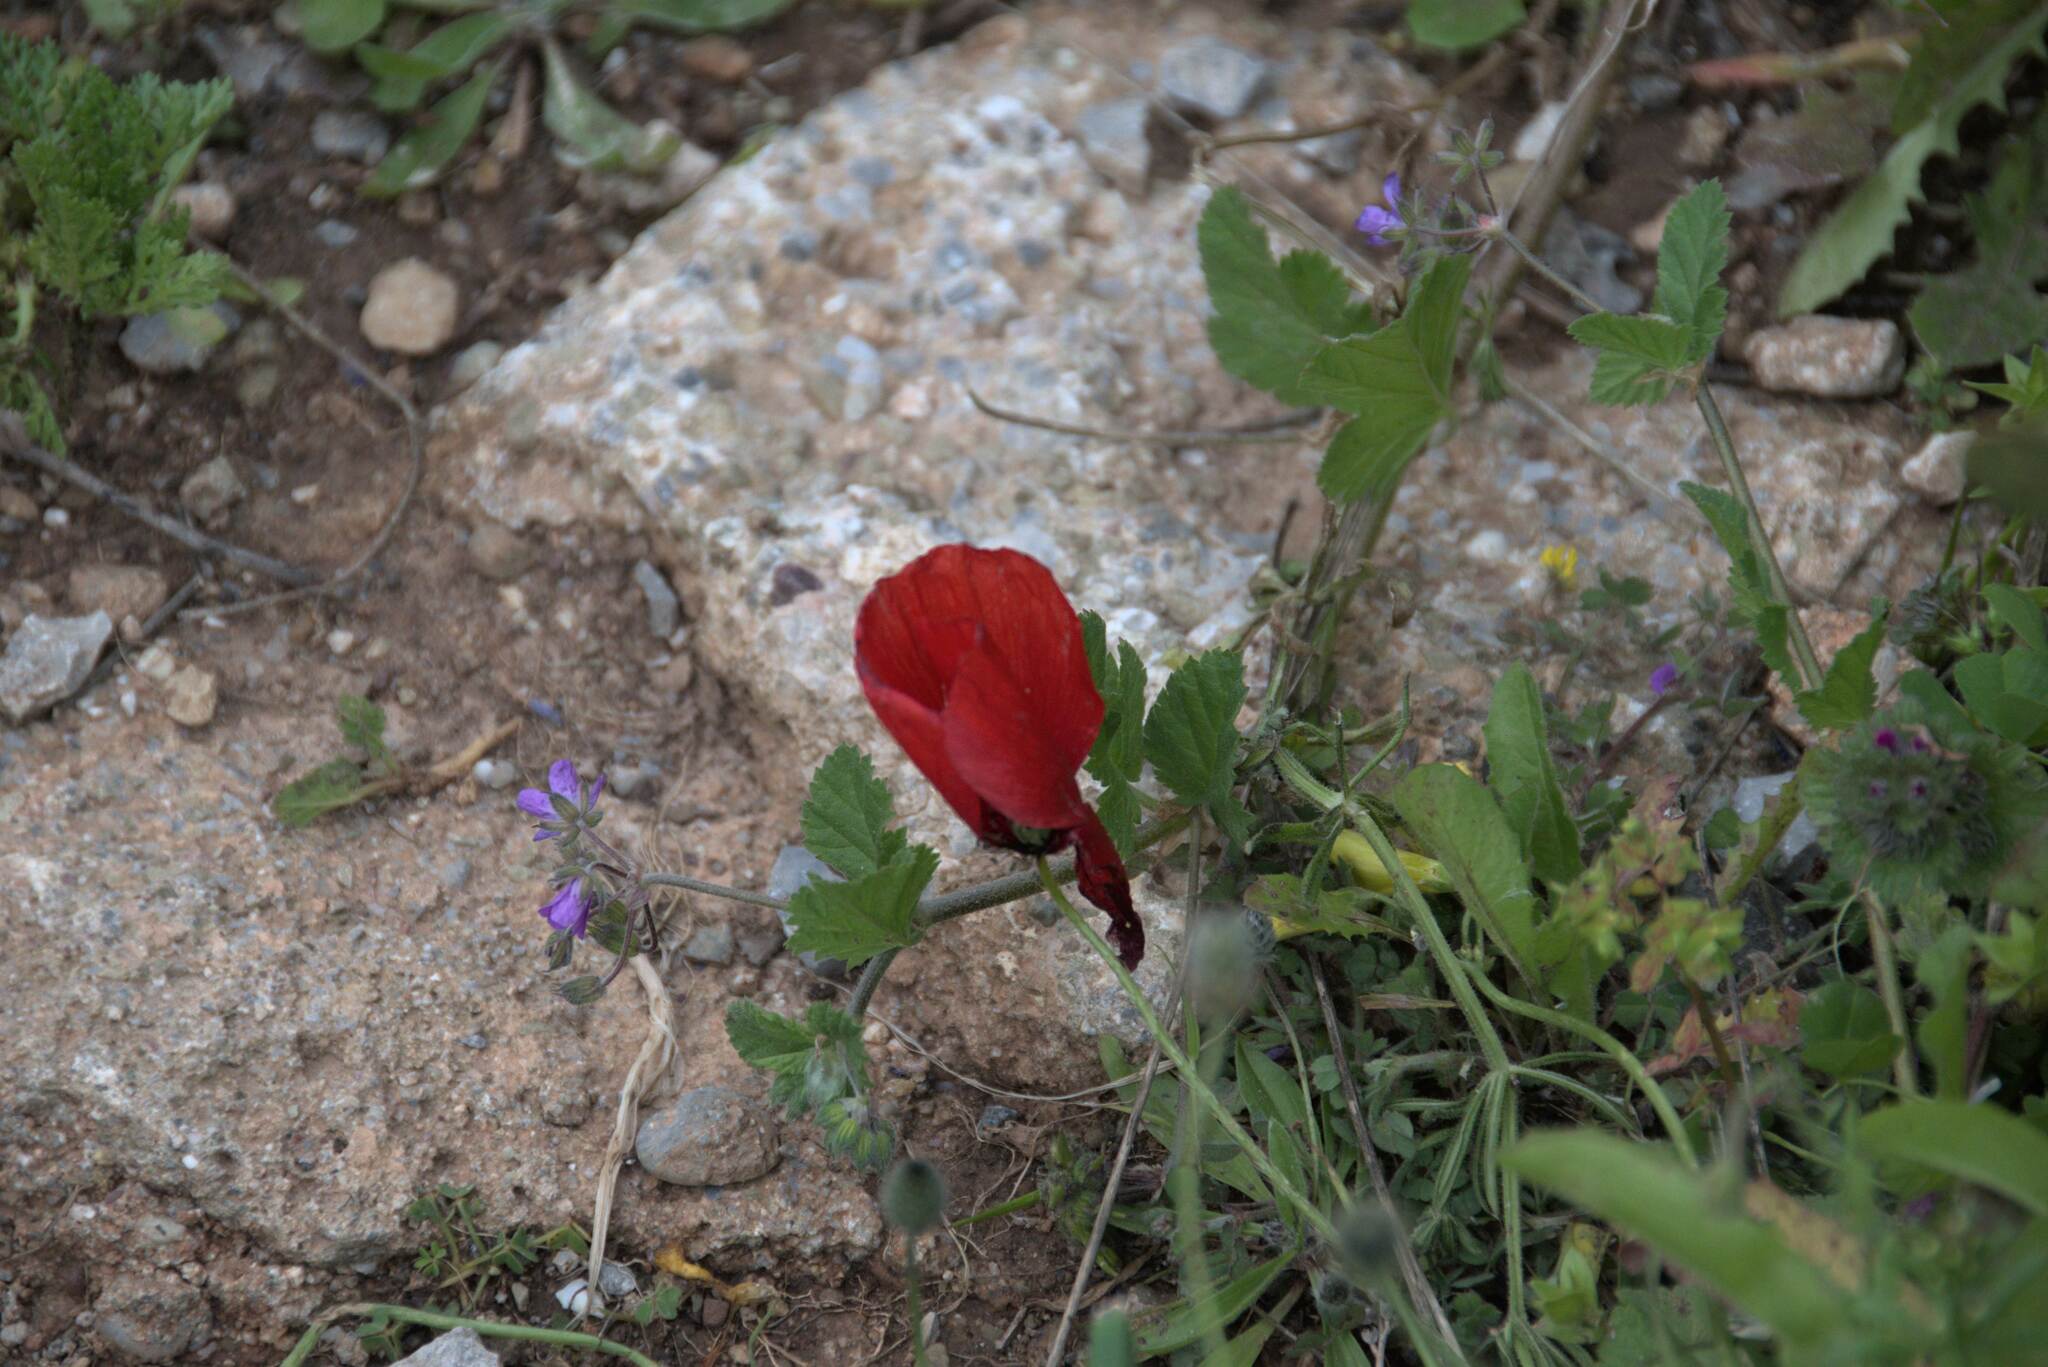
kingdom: Plantae
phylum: Tracheophyta
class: Magnoliopsida
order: Ranunculales
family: Papaveraceae
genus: Papaver
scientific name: Papaver
